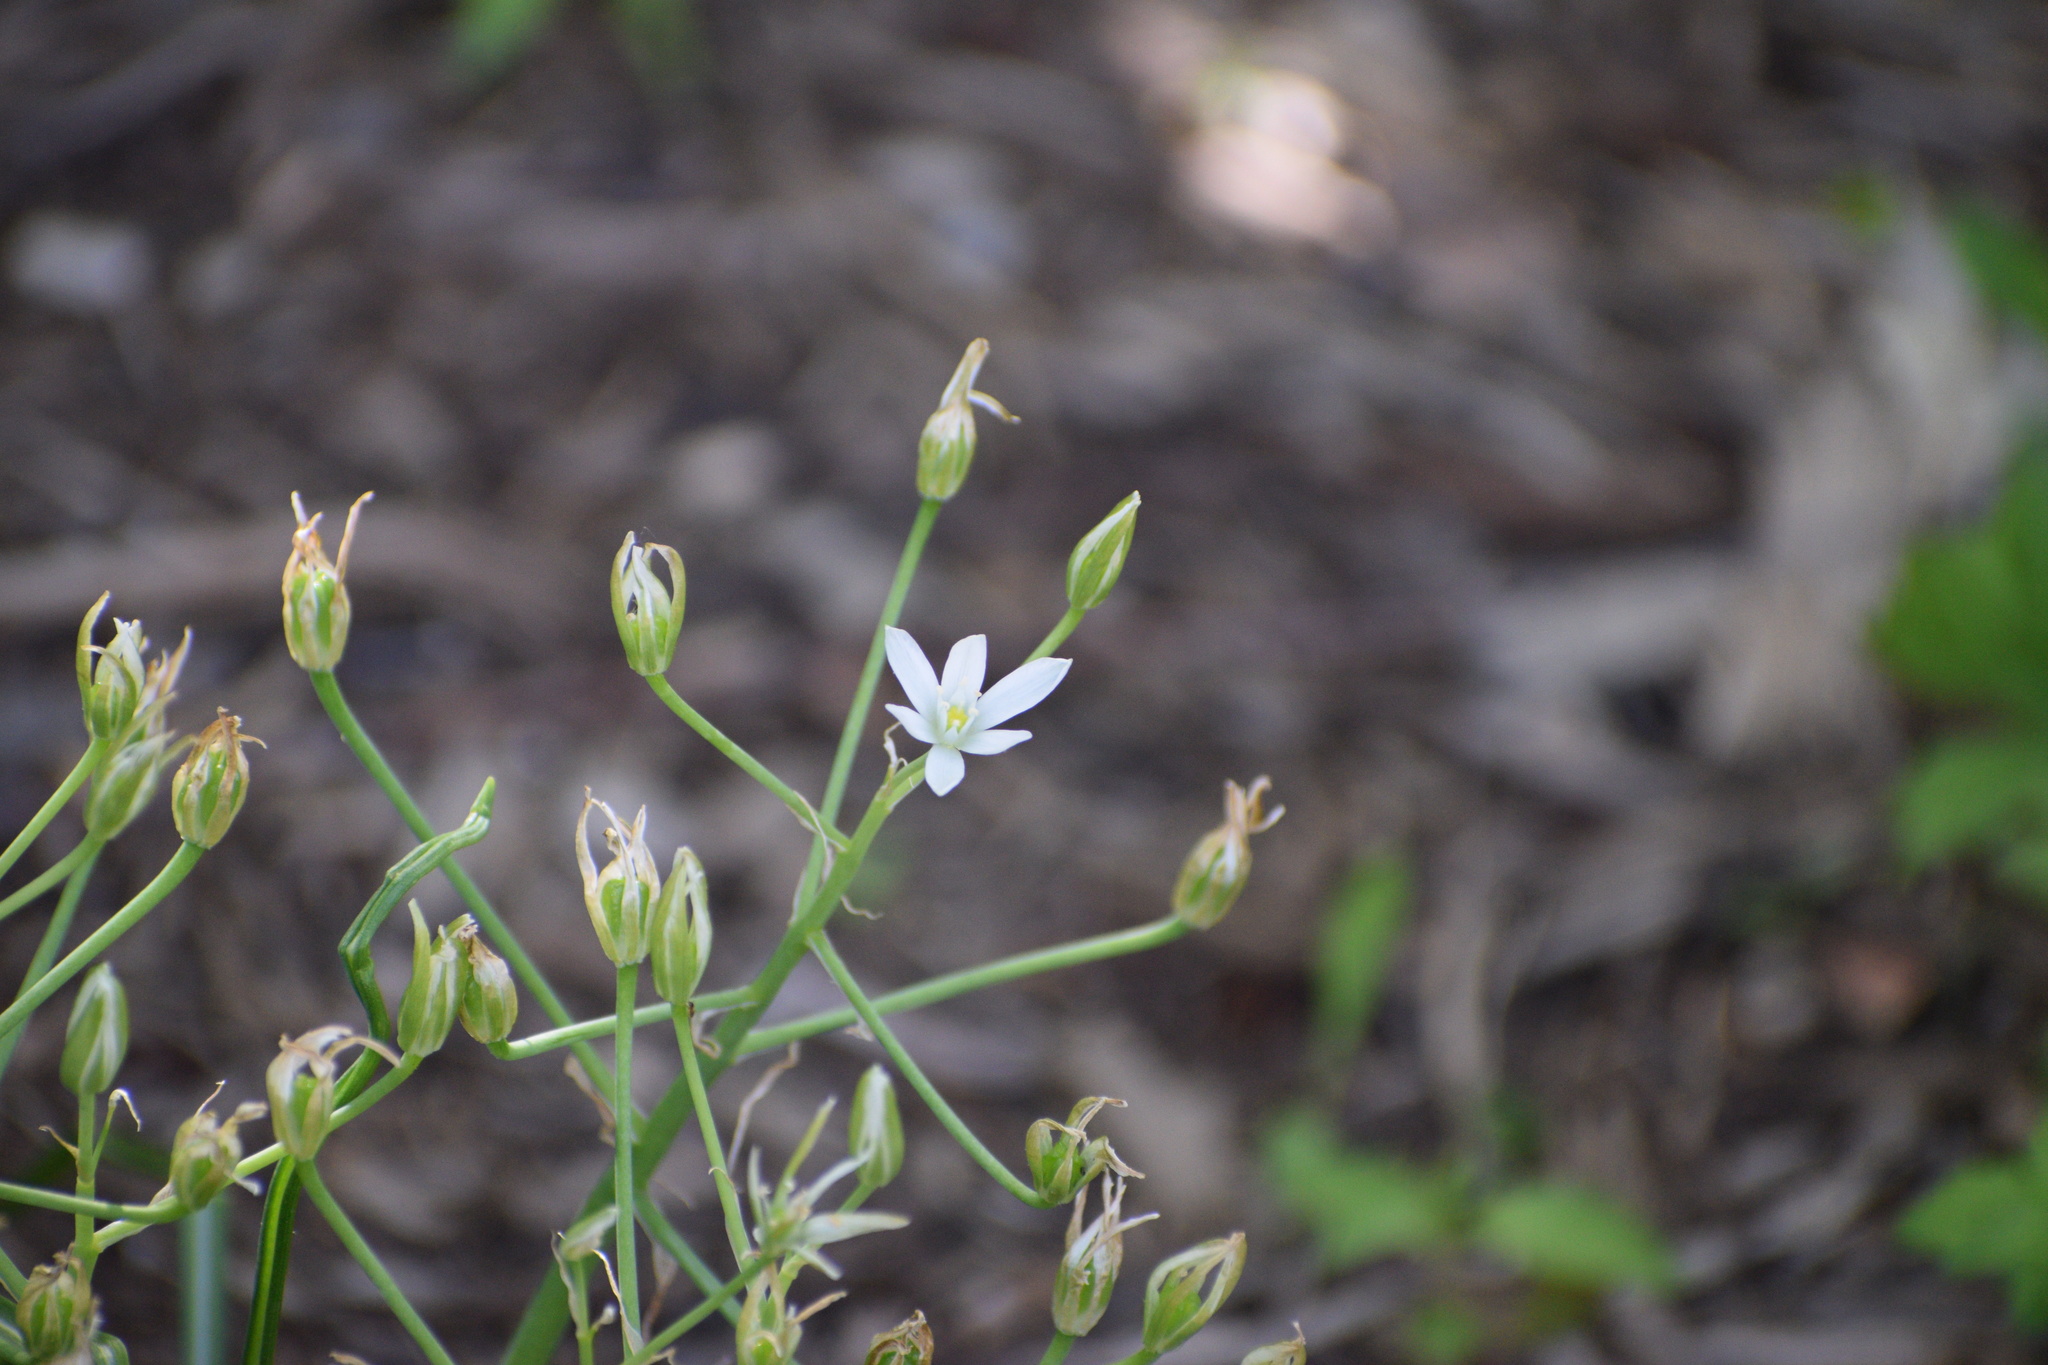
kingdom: Plantae
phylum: Tracheophyta
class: Liliopsida
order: Asparagales
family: Asparagaceae
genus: Ornithogalum
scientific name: Ornithogalum umbellatum
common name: Garden star-of-bethlehem
